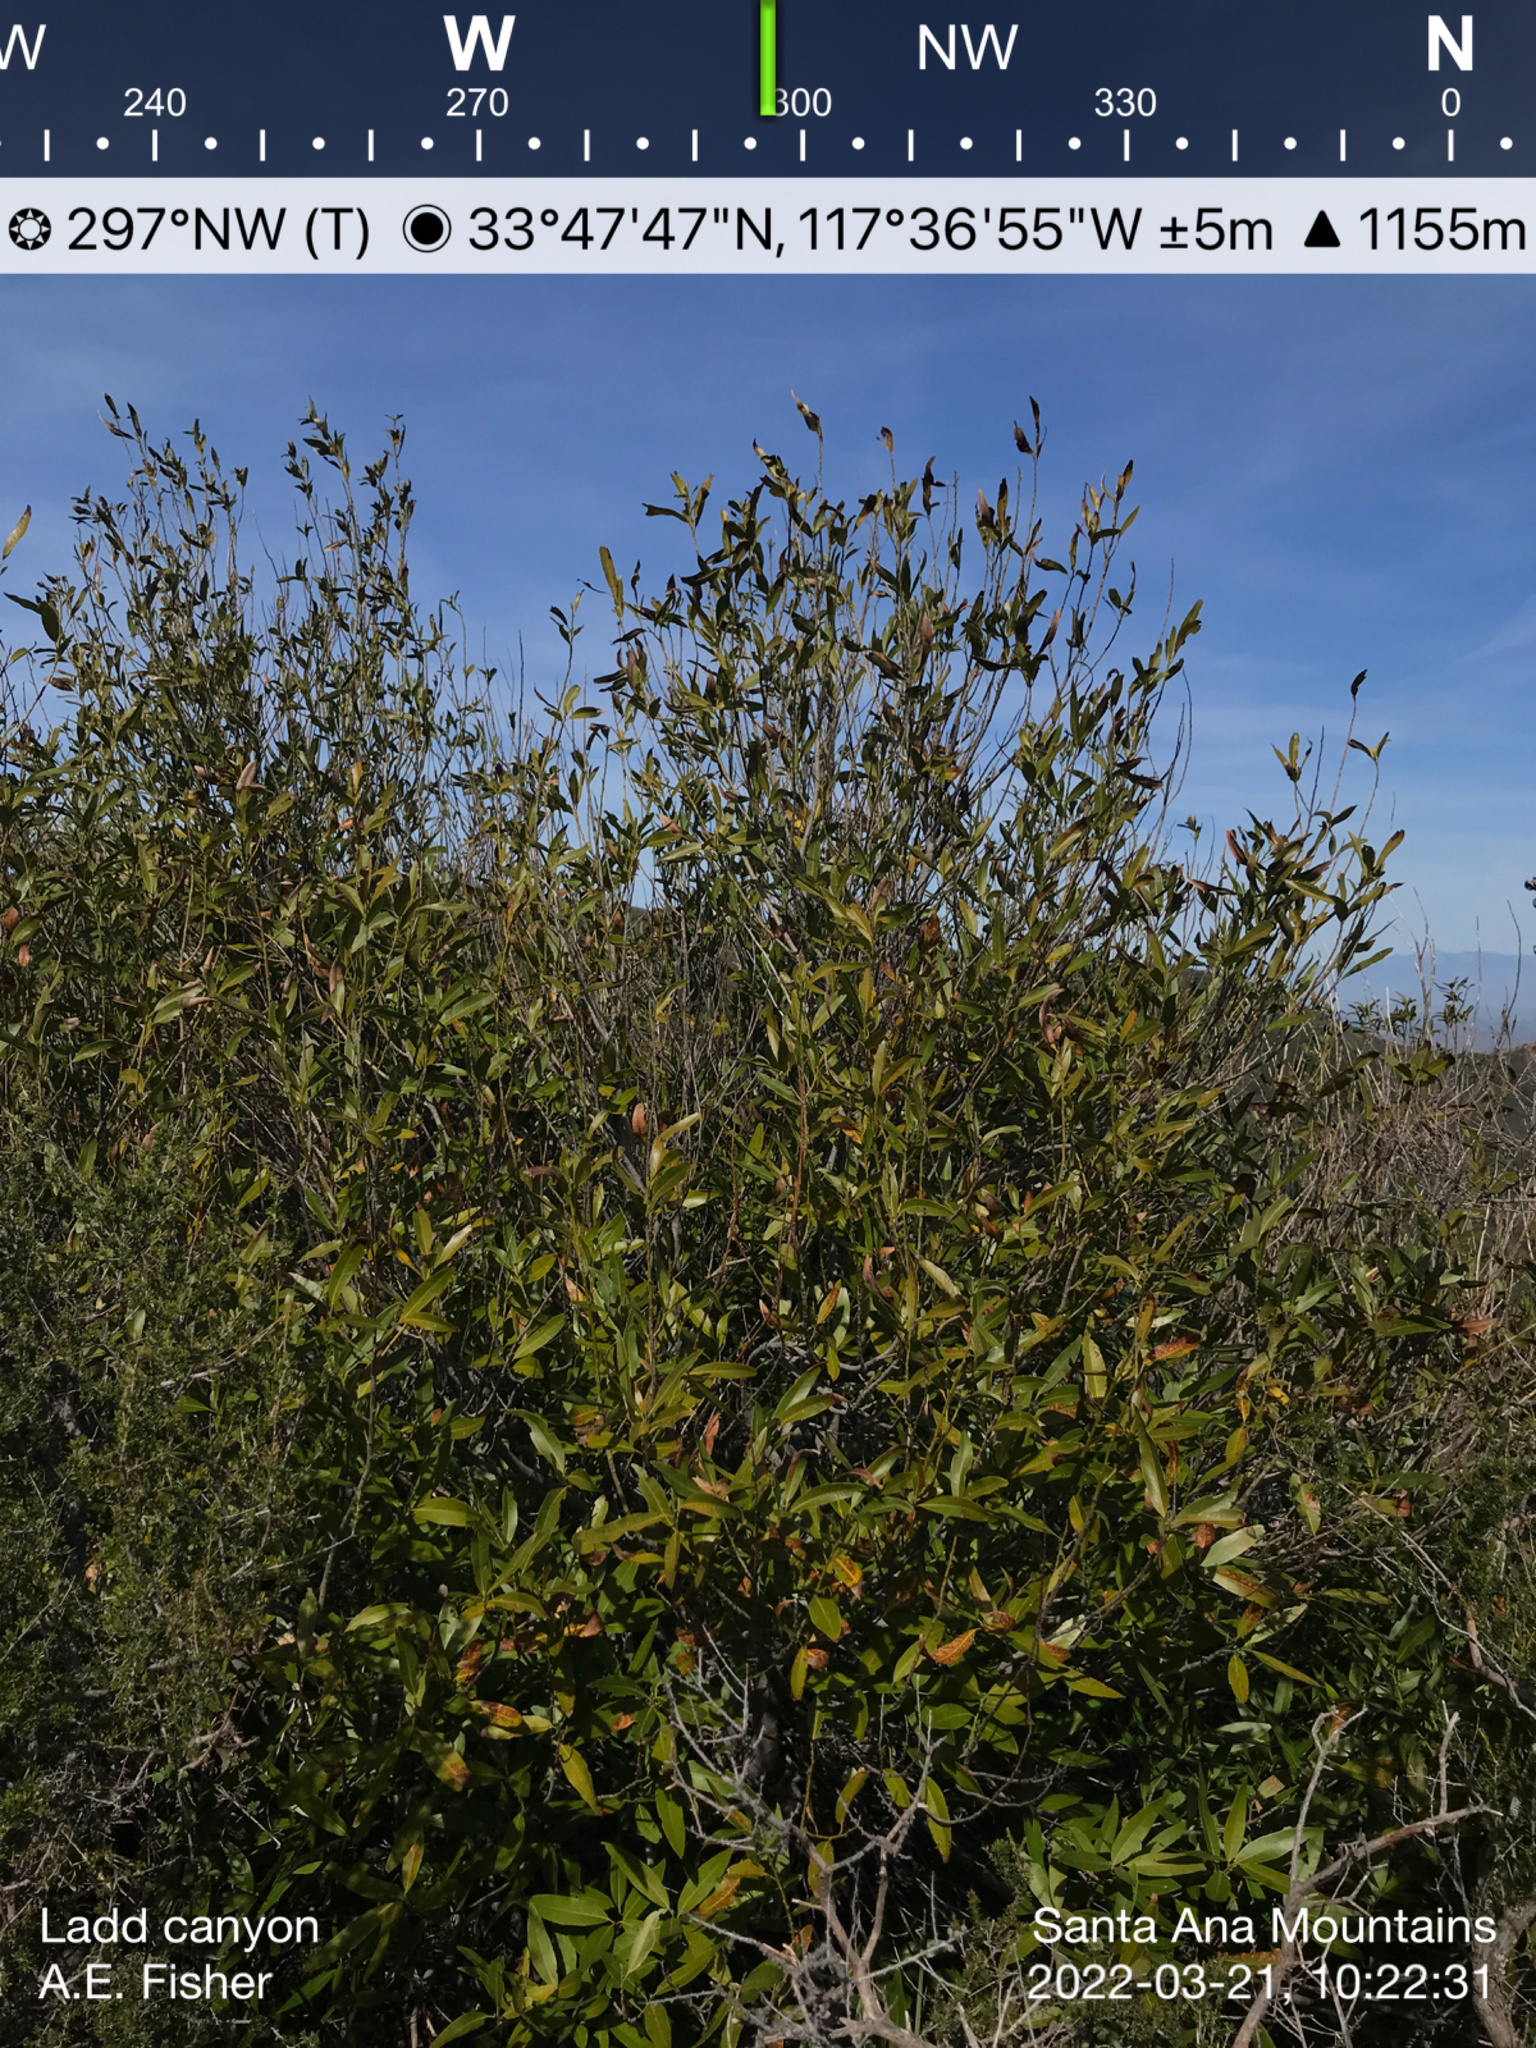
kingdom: Plantae
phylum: Tracheophyta
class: Magnoliopsida
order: Laurales
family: Lauraceae
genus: Umbellularia
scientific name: Umbellularia californica
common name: California bay
